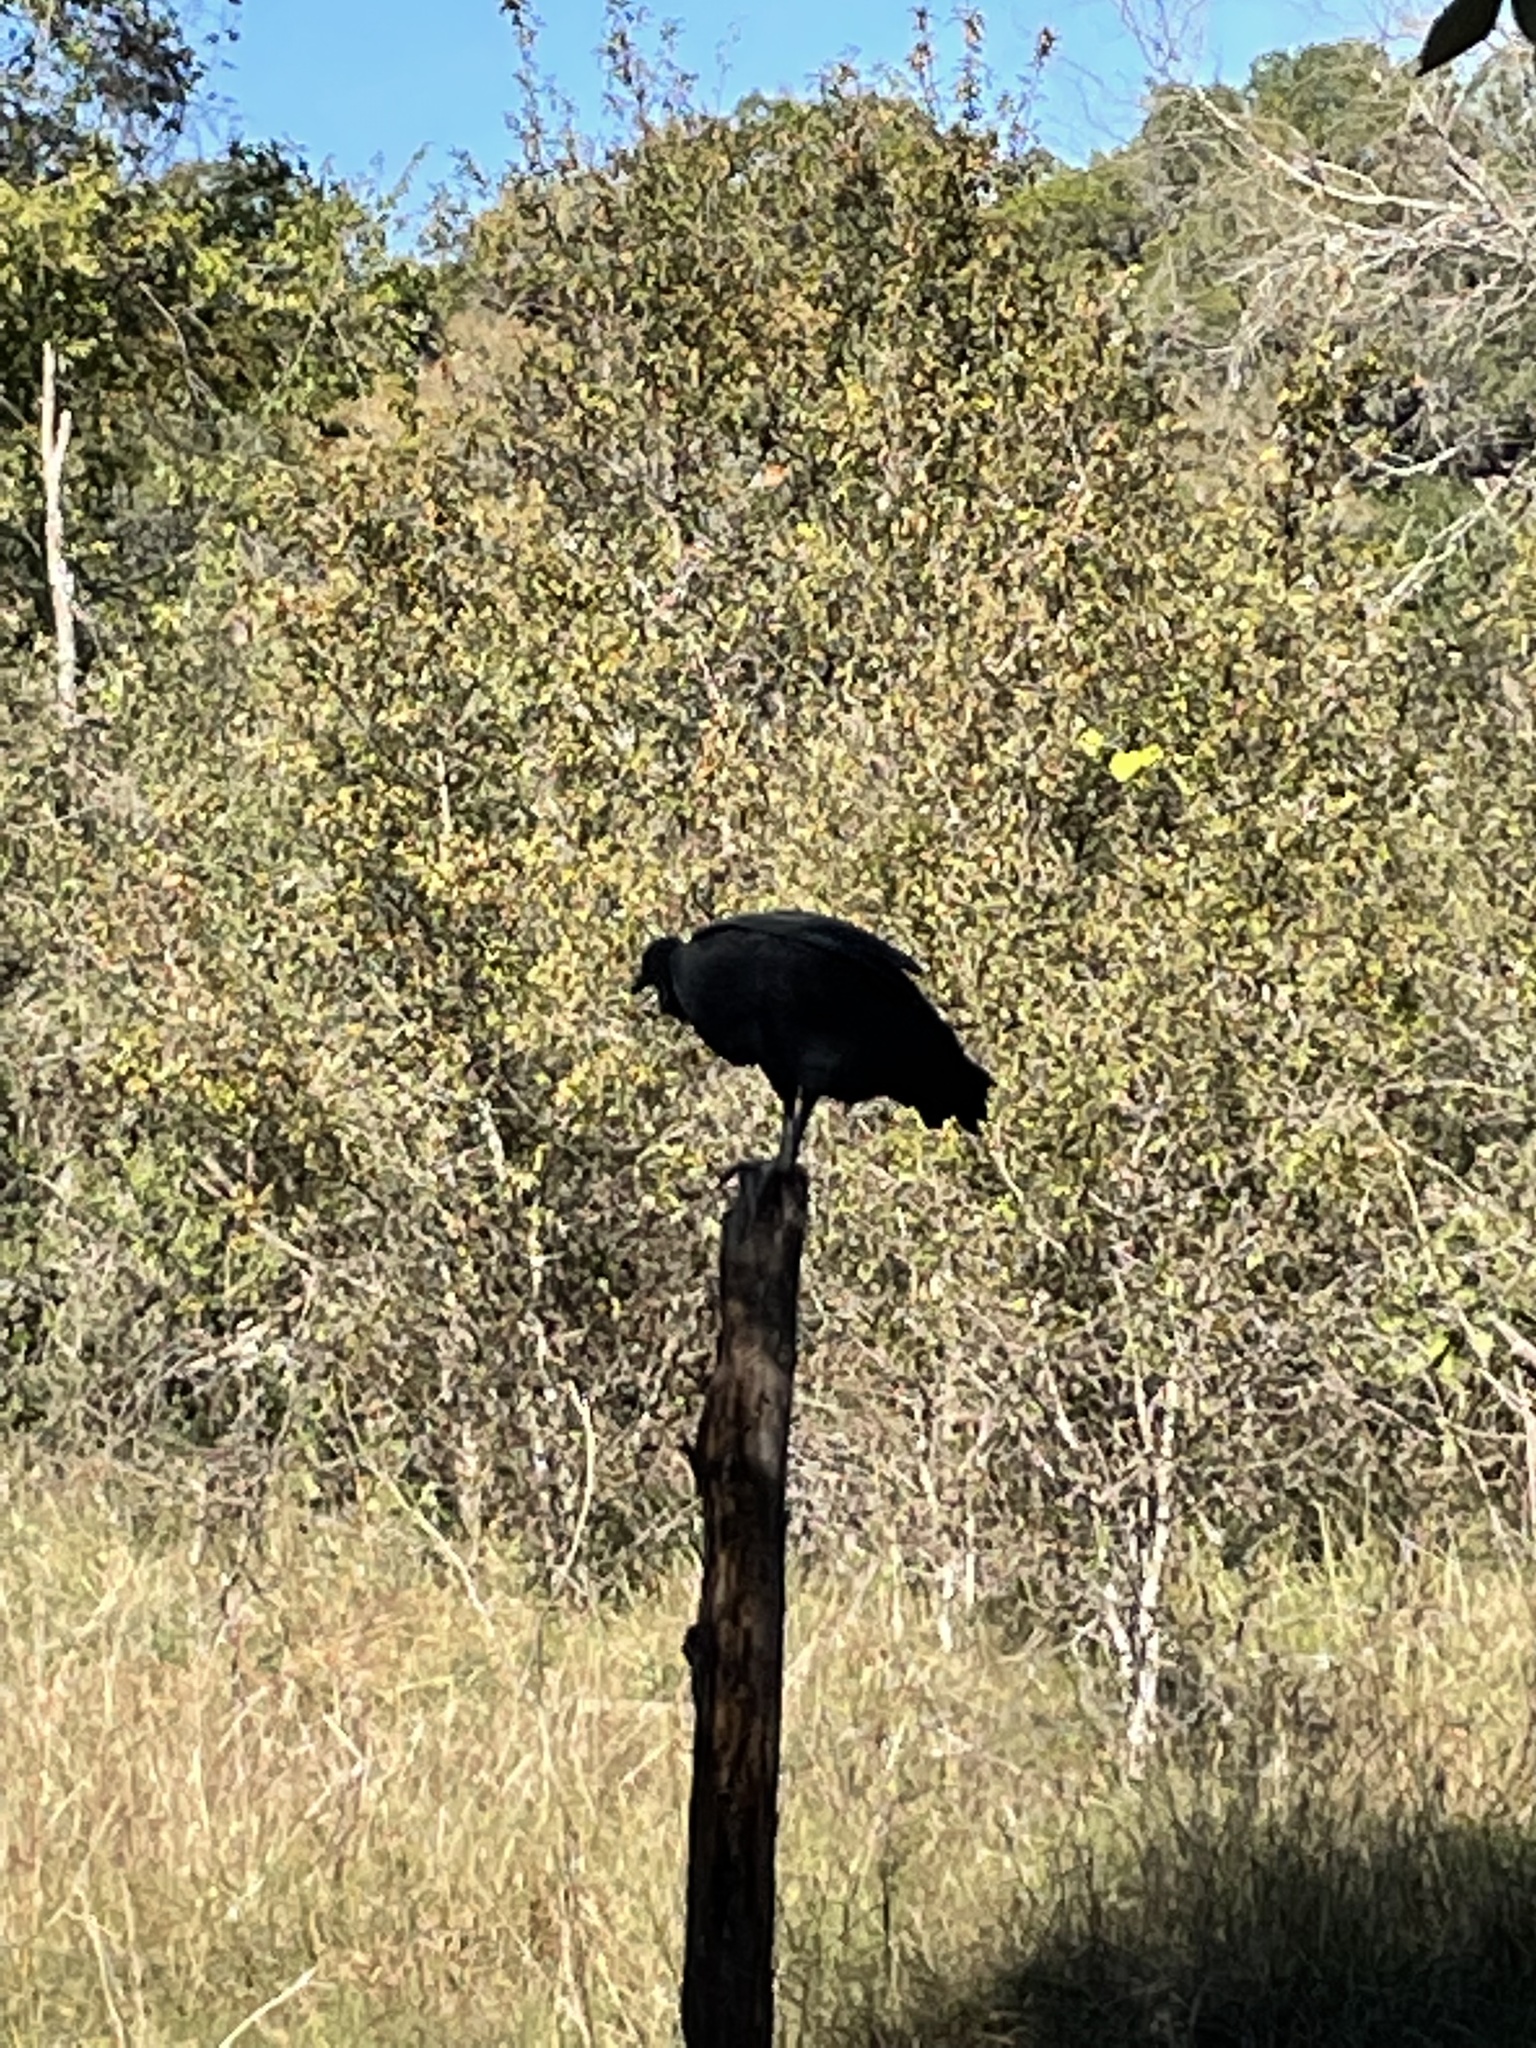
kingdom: Animalia
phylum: Chordata
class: Aves
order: Accipitriformes
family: Cathartidae
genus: Coragyps
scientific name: Coragyps atratus
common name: Black vulture
